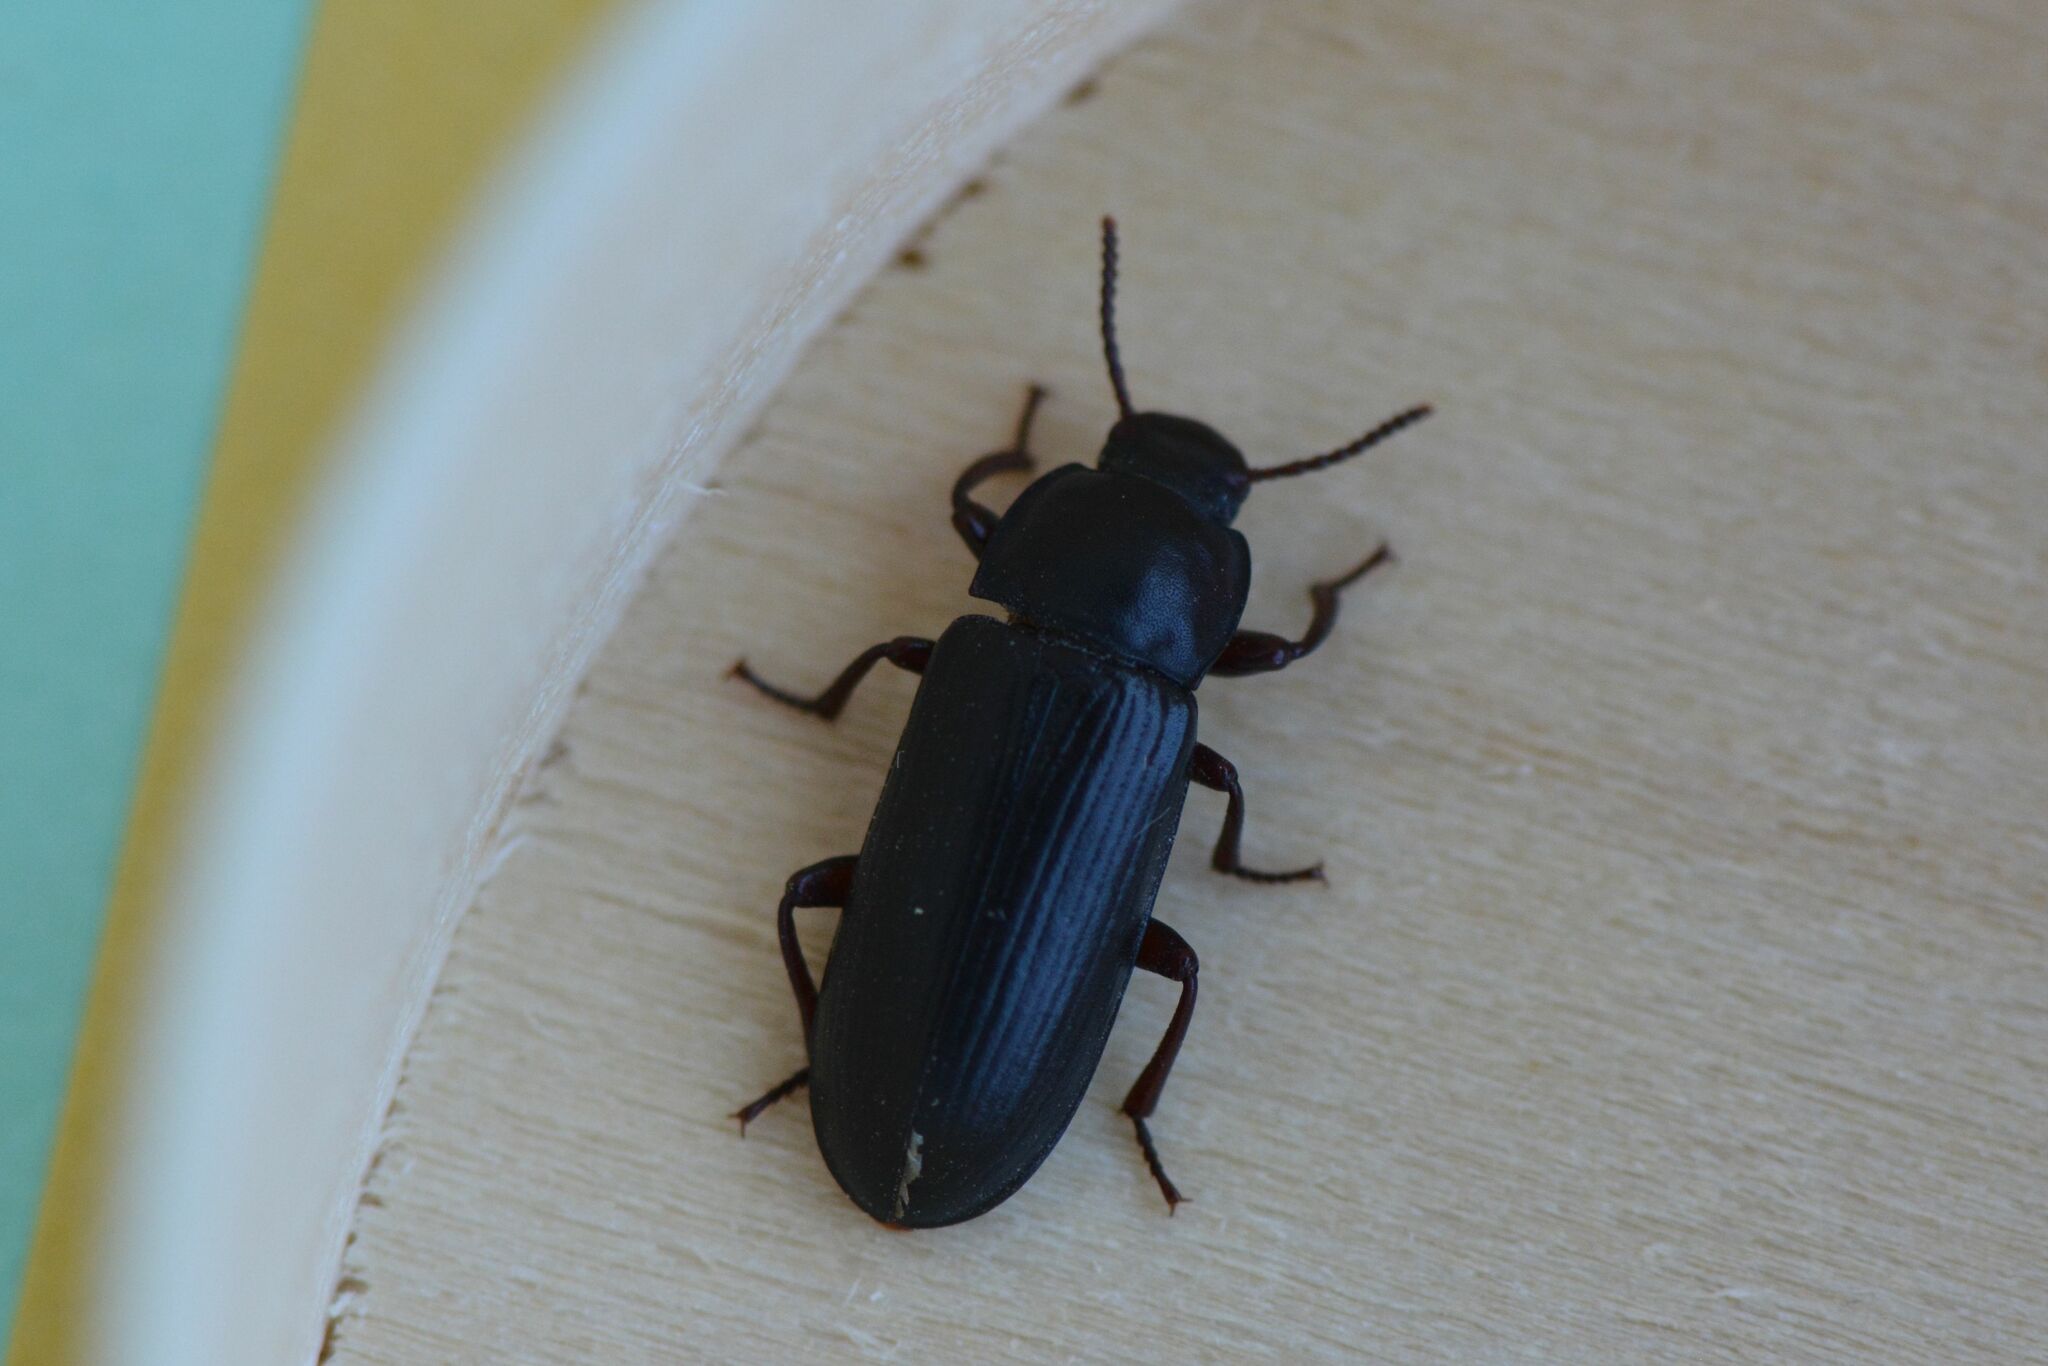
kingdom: Animalia
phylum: Arthropoda
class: Insecta
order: Coleoptera
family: Tenebrionidae
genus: Tenebrio
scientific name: Tenebrio molitor
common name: Hardback beetle
